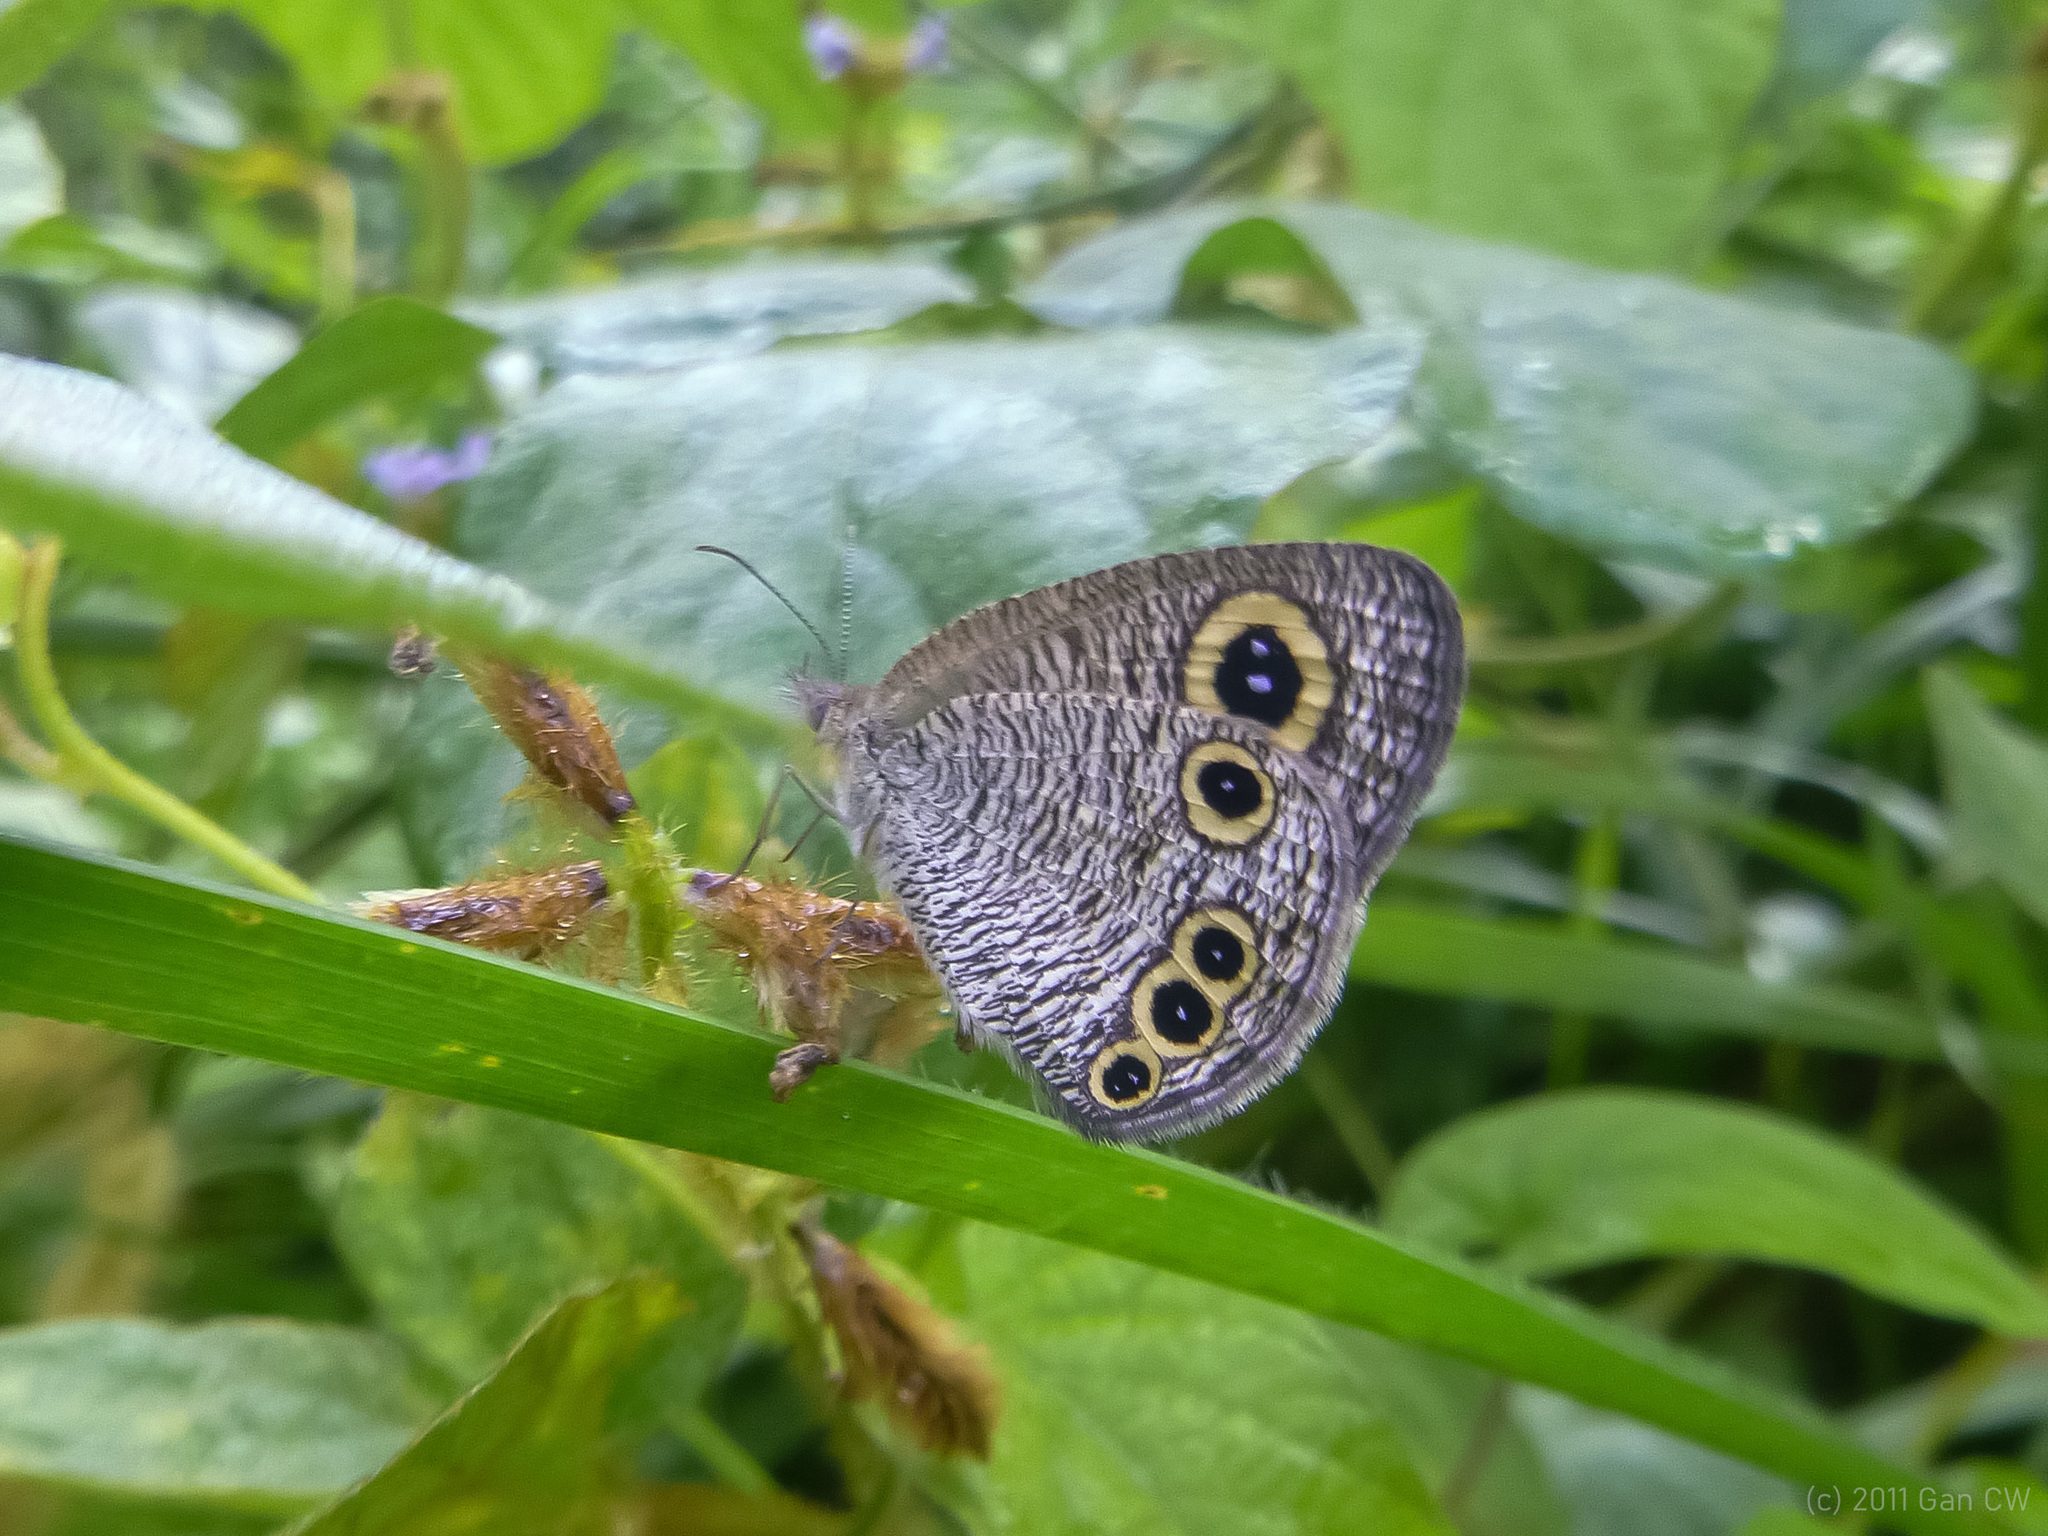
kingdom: Animalia
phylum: Arthropoda
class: Insecta
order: Lepidoptera
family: Nymphalidae
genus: Ypthima
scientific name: Ypthima huebneri
